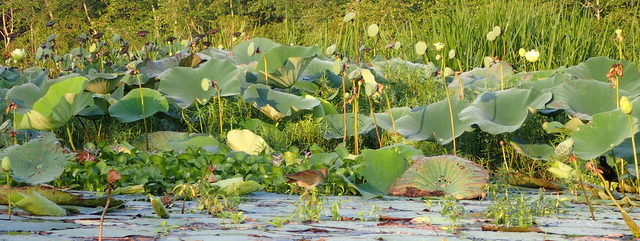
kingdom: Plantae
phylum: Tracheophyta
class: Magnoliopsida
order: Proteales
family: Nelumbonaceae
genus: Nelumbo
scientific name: Nelumbo lutea
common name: American lotus
